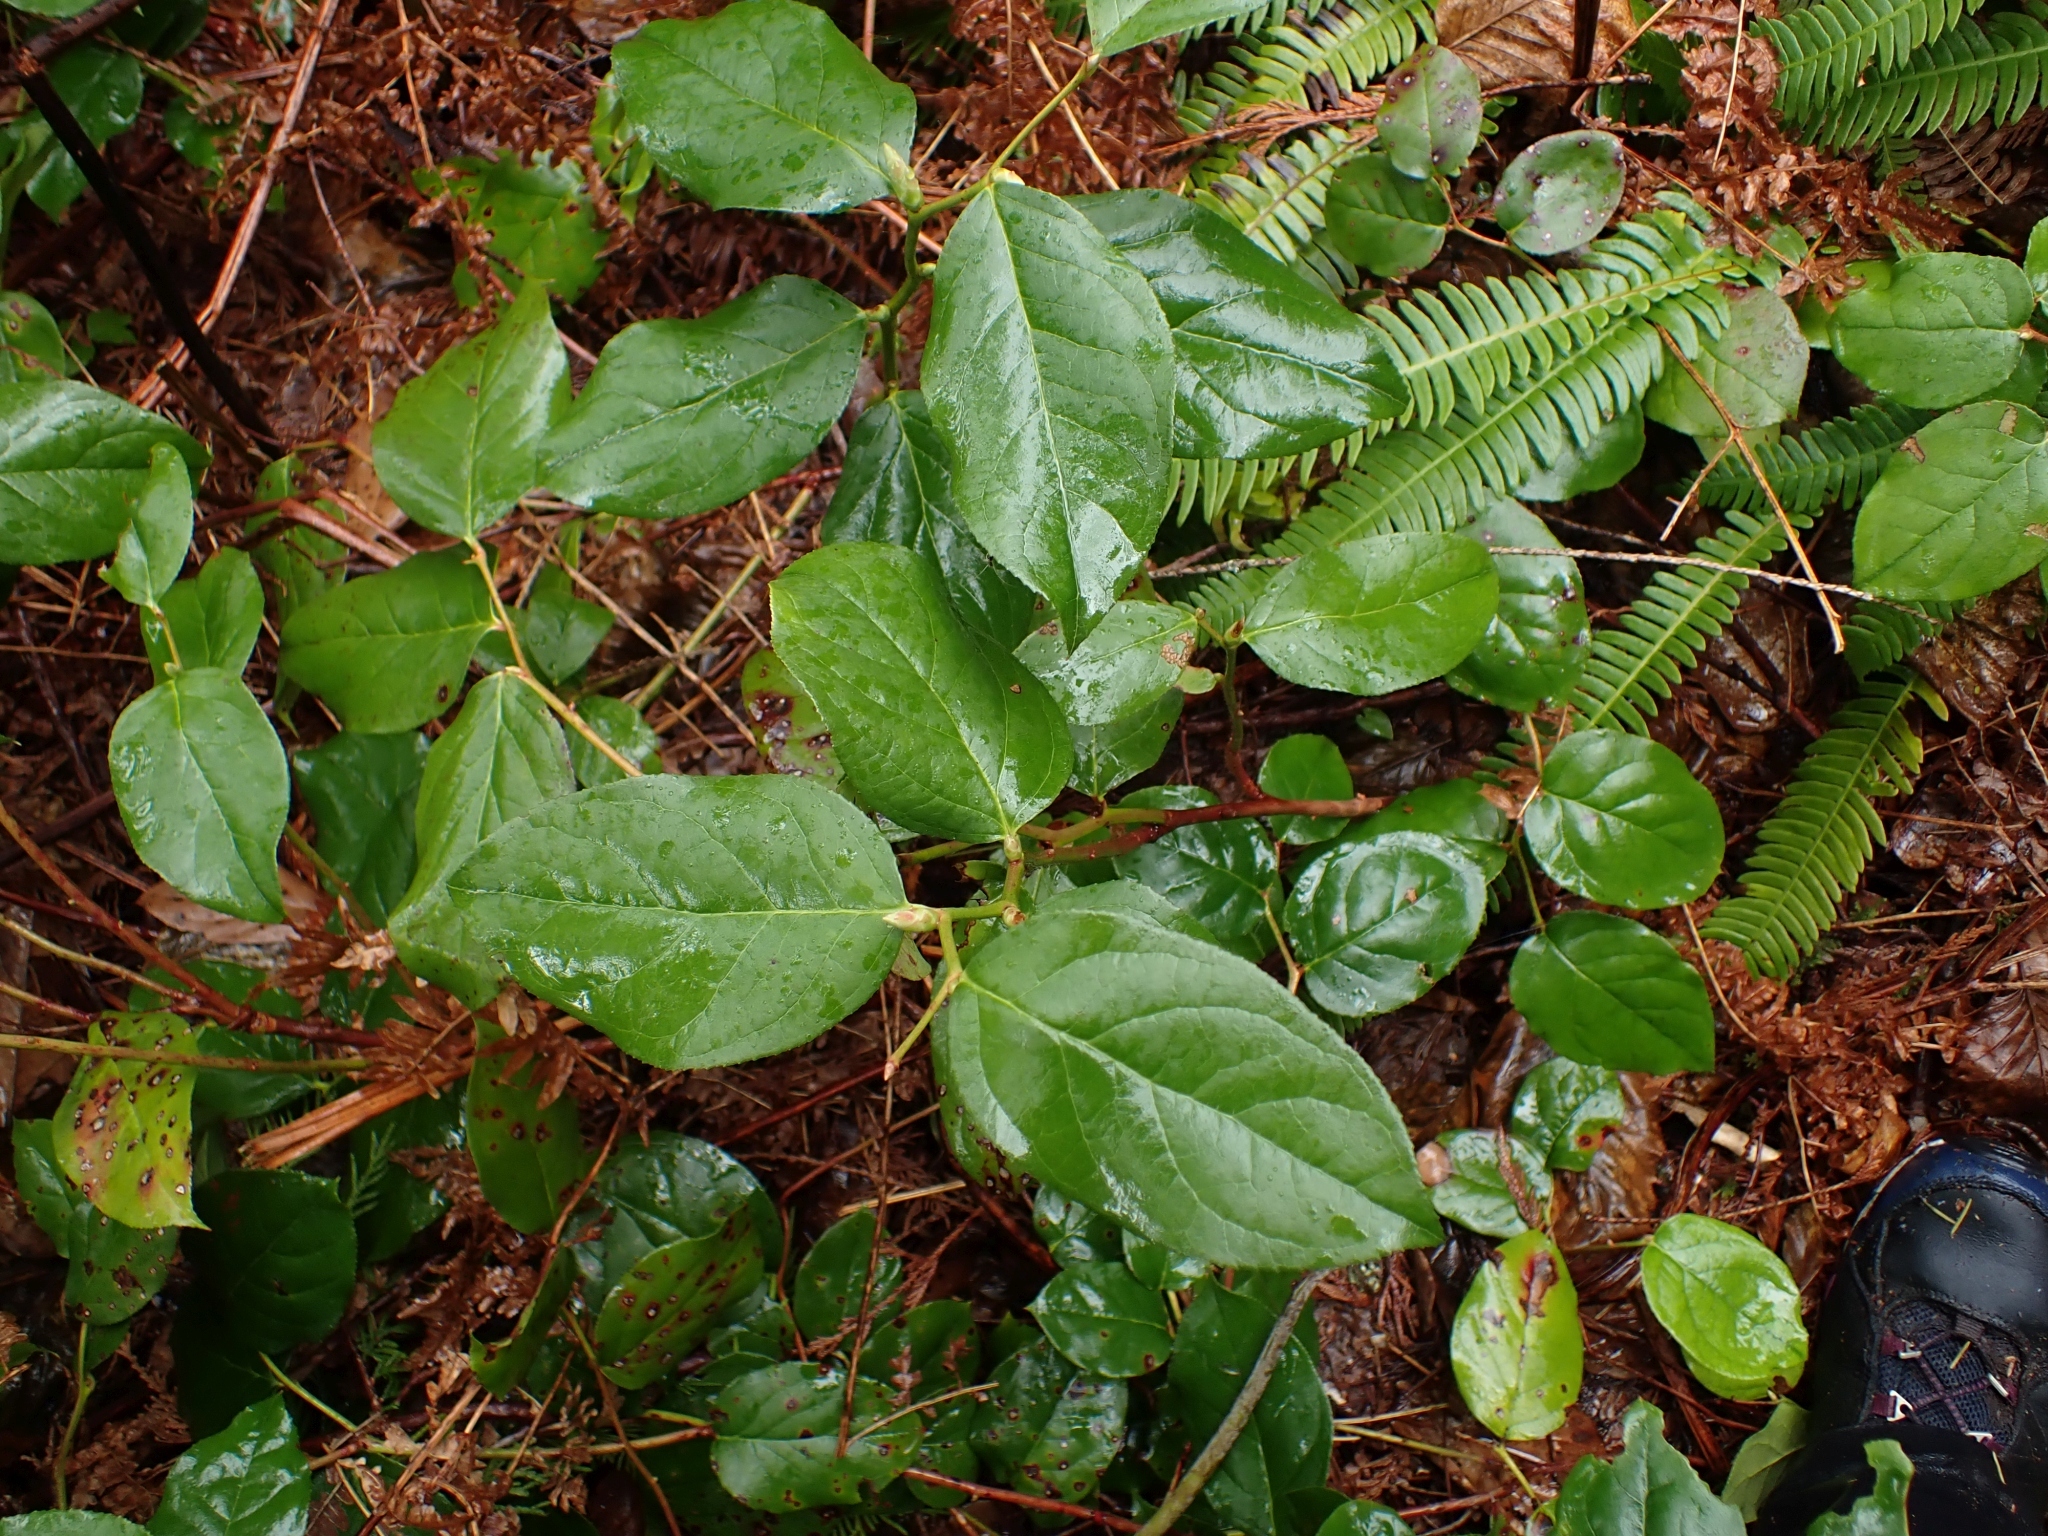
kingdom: Plantae
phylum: Tracheophyta
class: Magnoliopsida
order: Ericales
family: Ericaceae
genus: Gaultheria
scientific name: Gaultheria shallon
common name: Shallon
